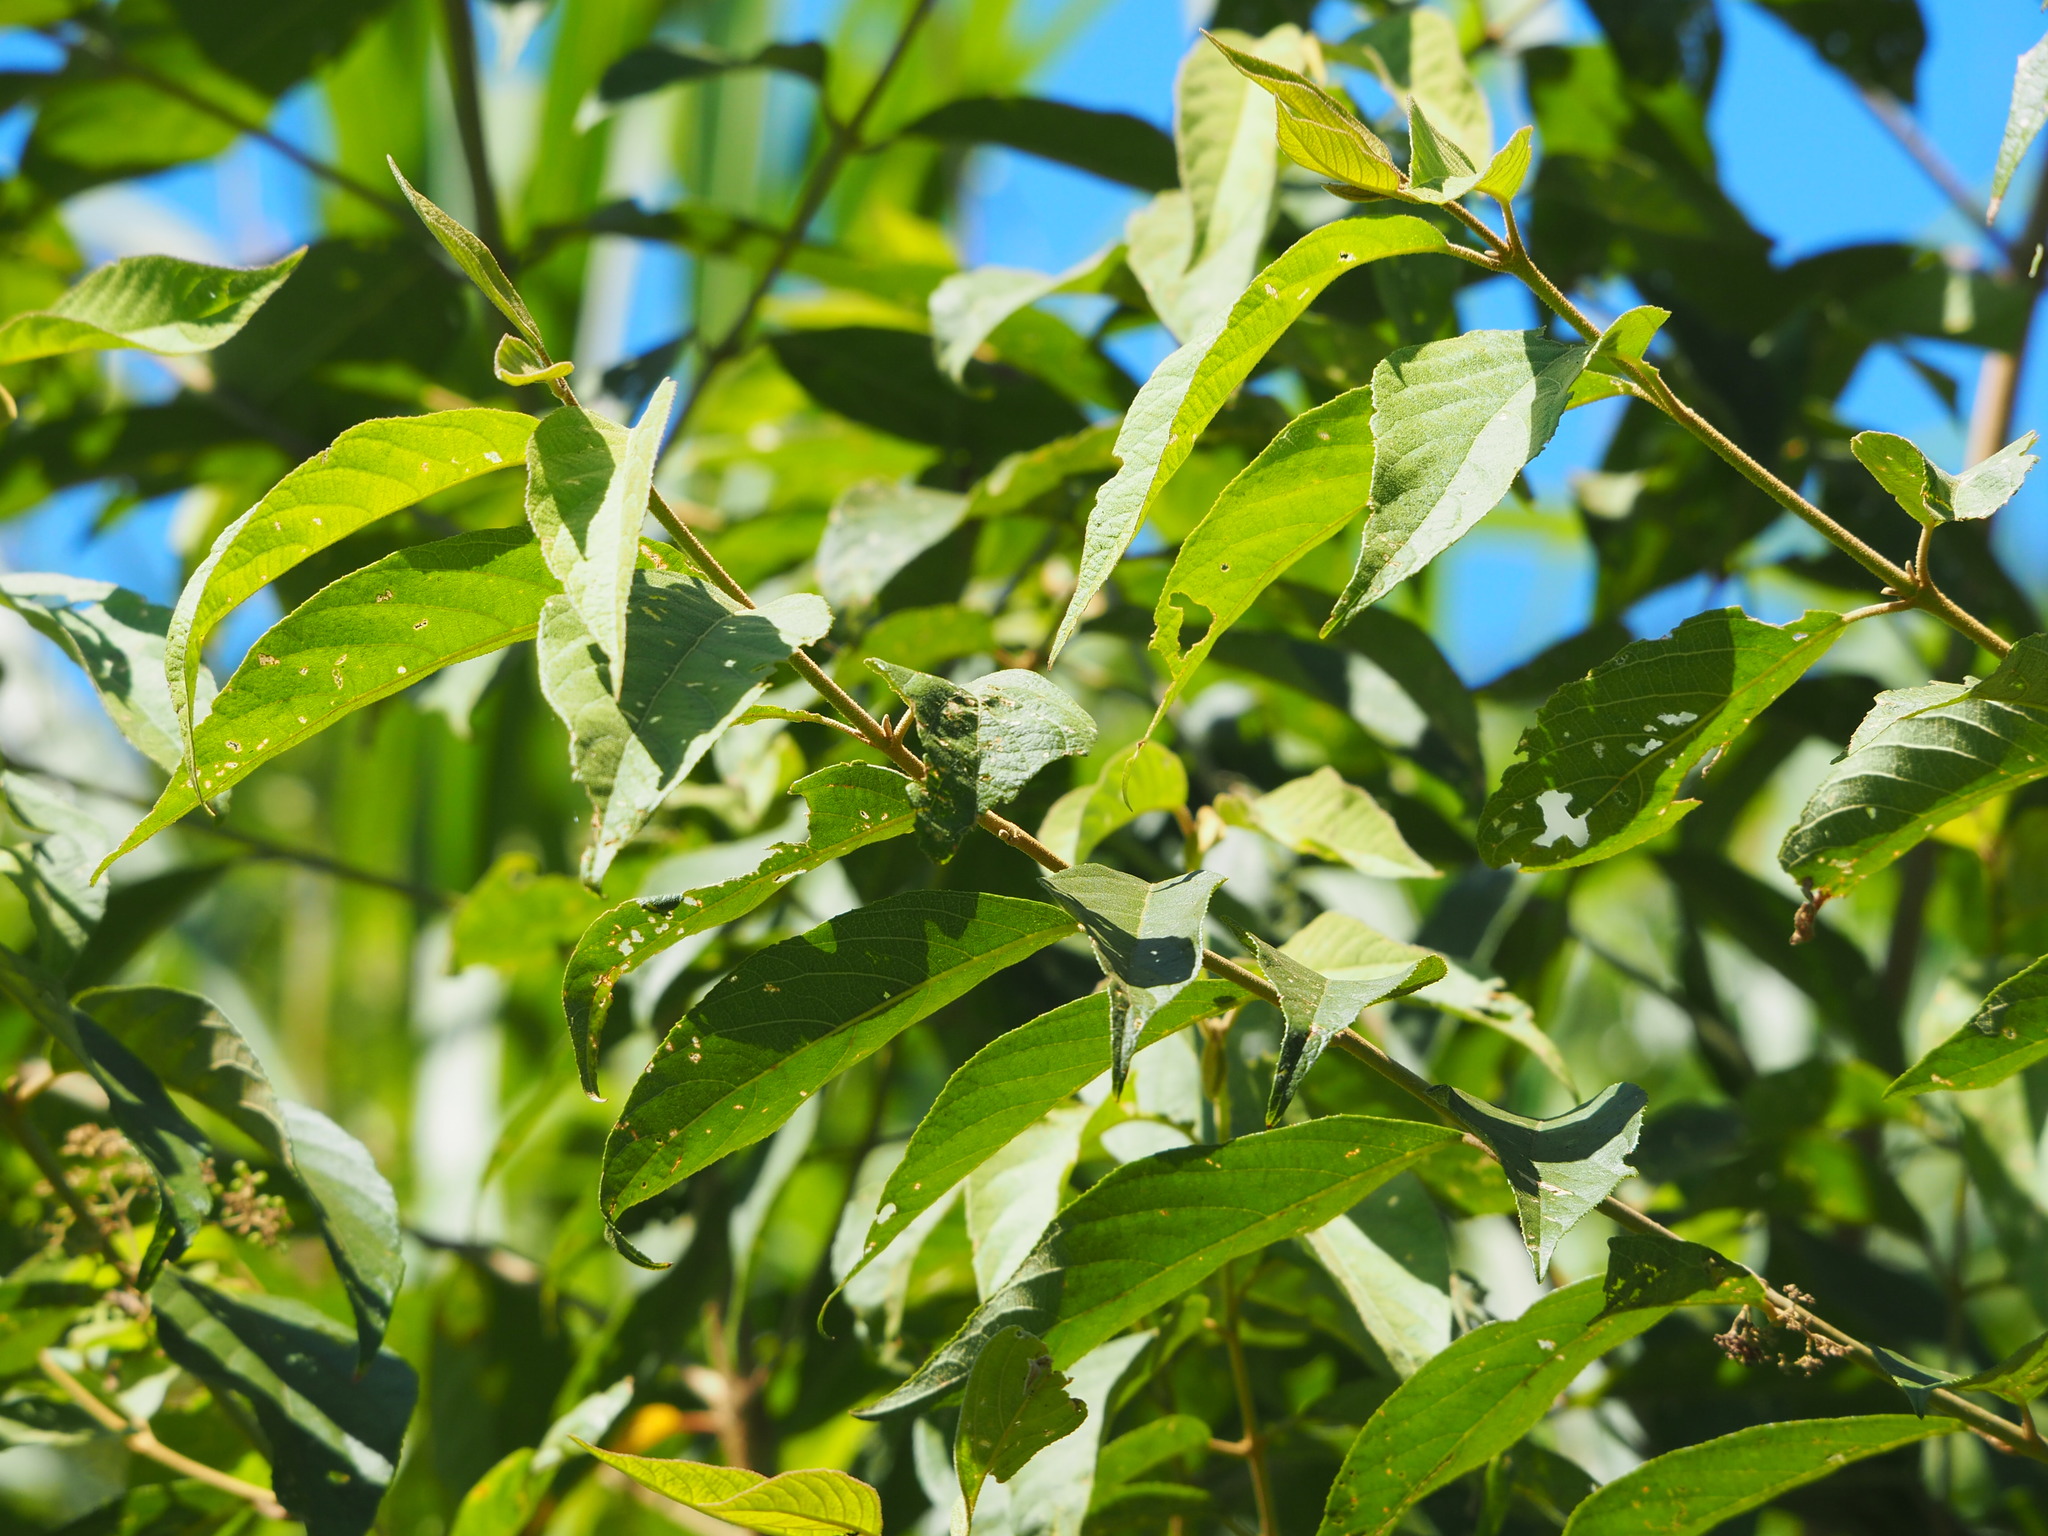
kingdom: Plantae
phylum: Tracheophyta
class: Magnoliopsida
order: Lamiales
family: Lamiaceae
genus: Callicarpa
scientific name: Callicarpa pedunculata
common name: Velvetleaf
